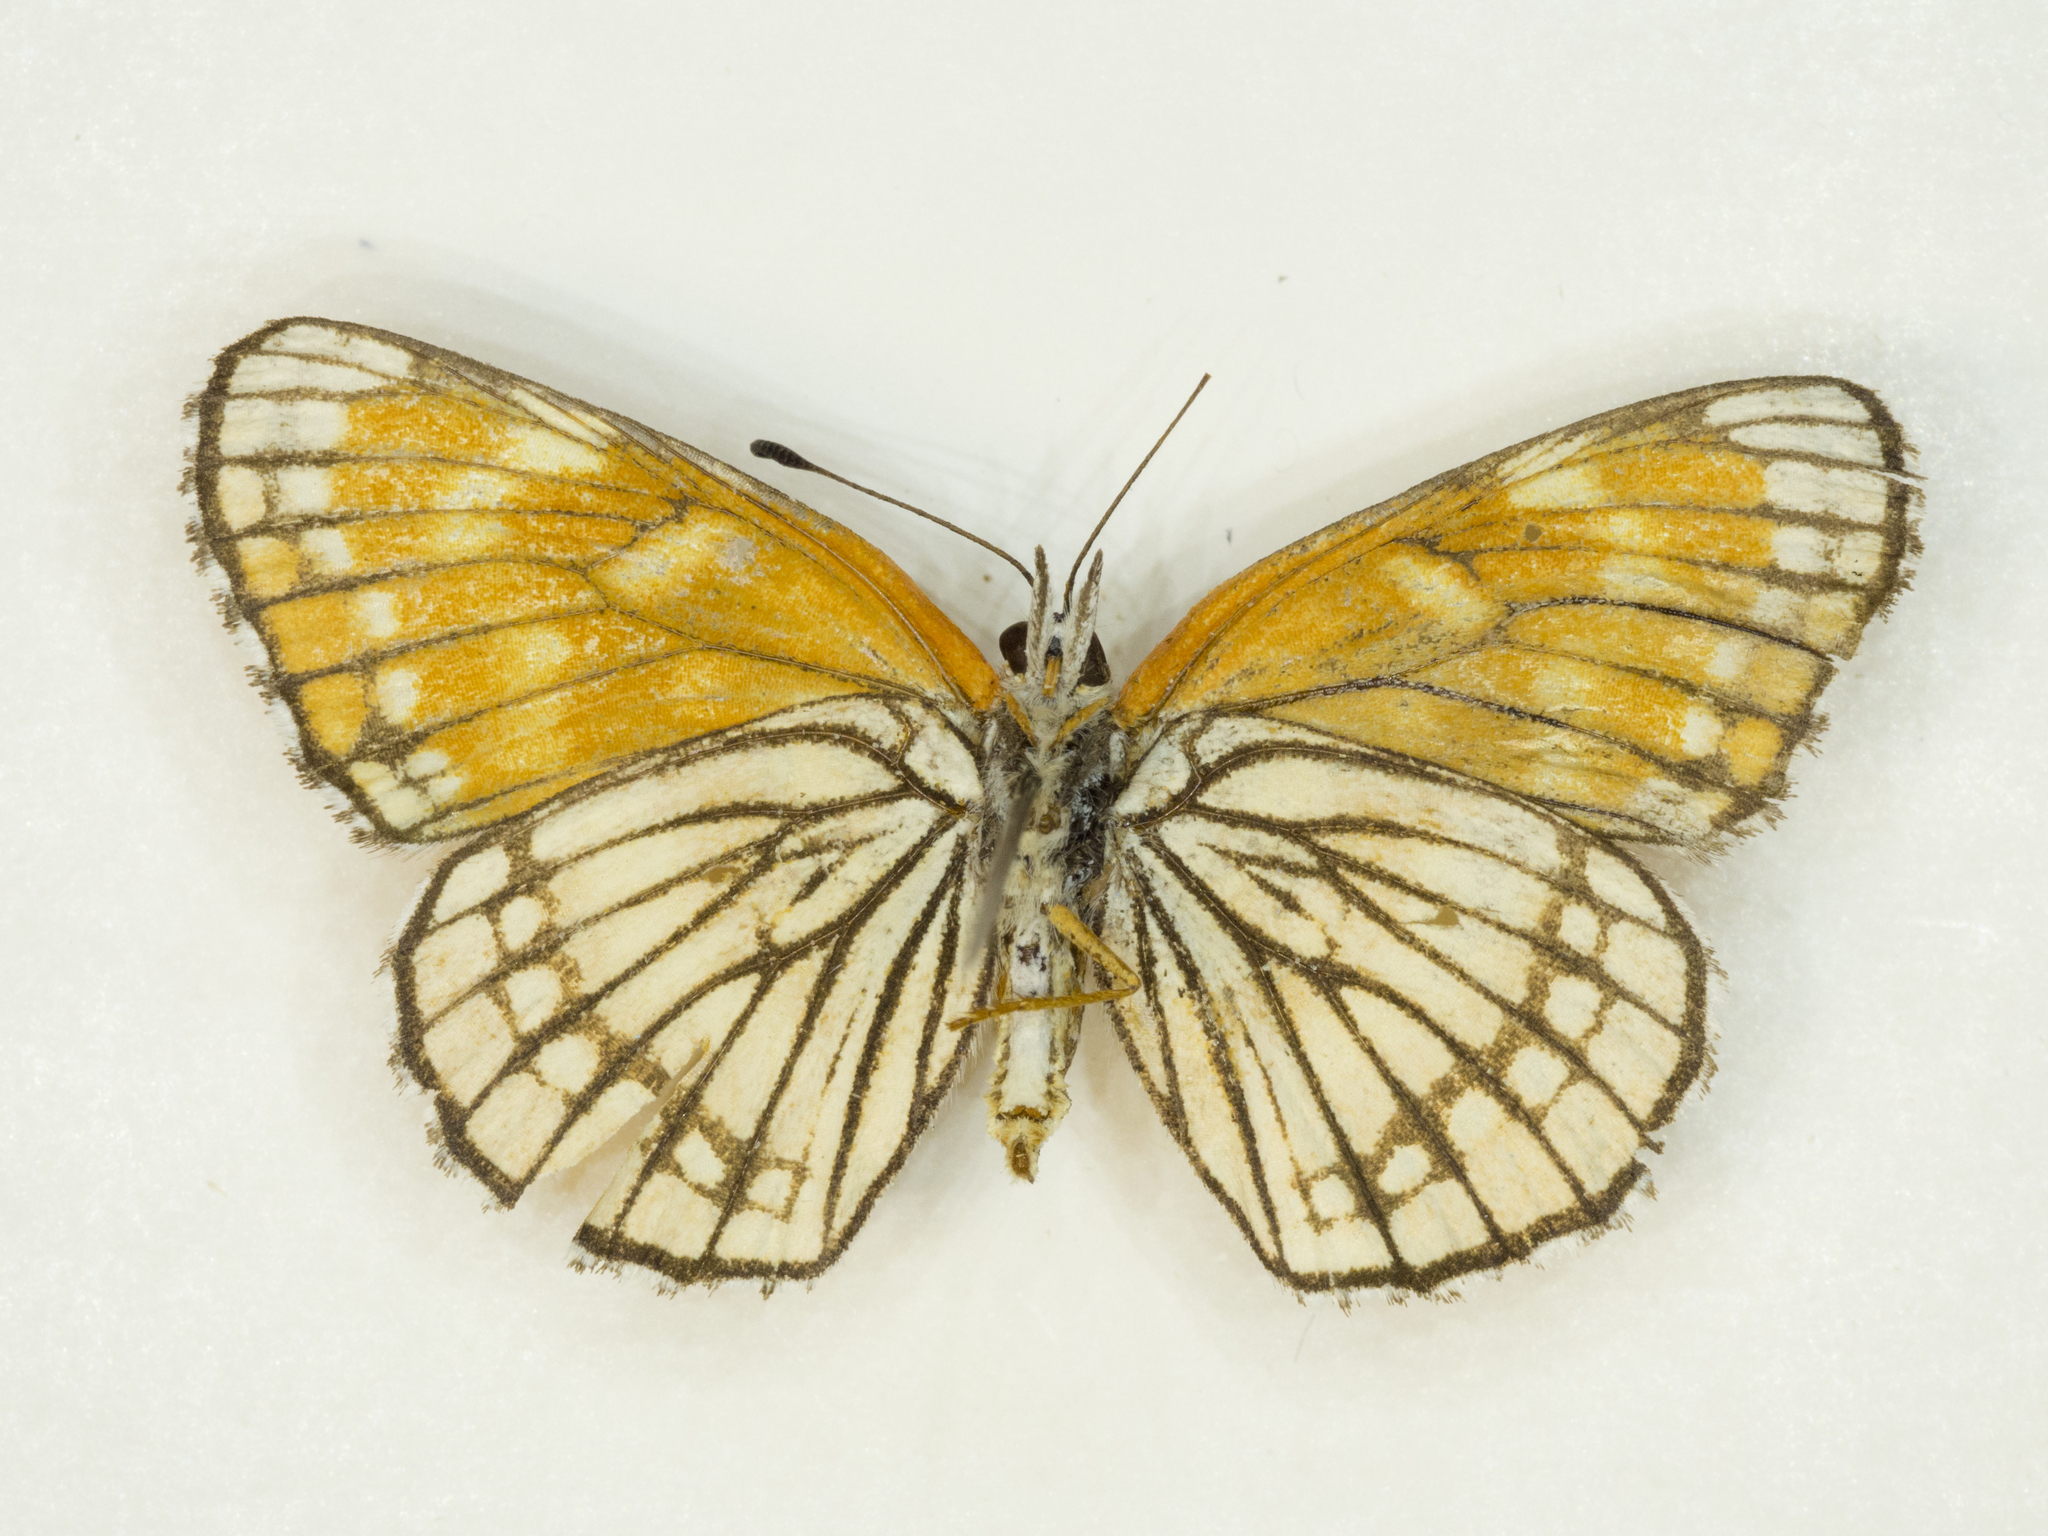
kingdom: Animalia
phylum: Arthropoda
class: Insecta
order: Lepidoptera
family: Nymphalidae
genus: Chlosyne
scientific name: Chlosyne
